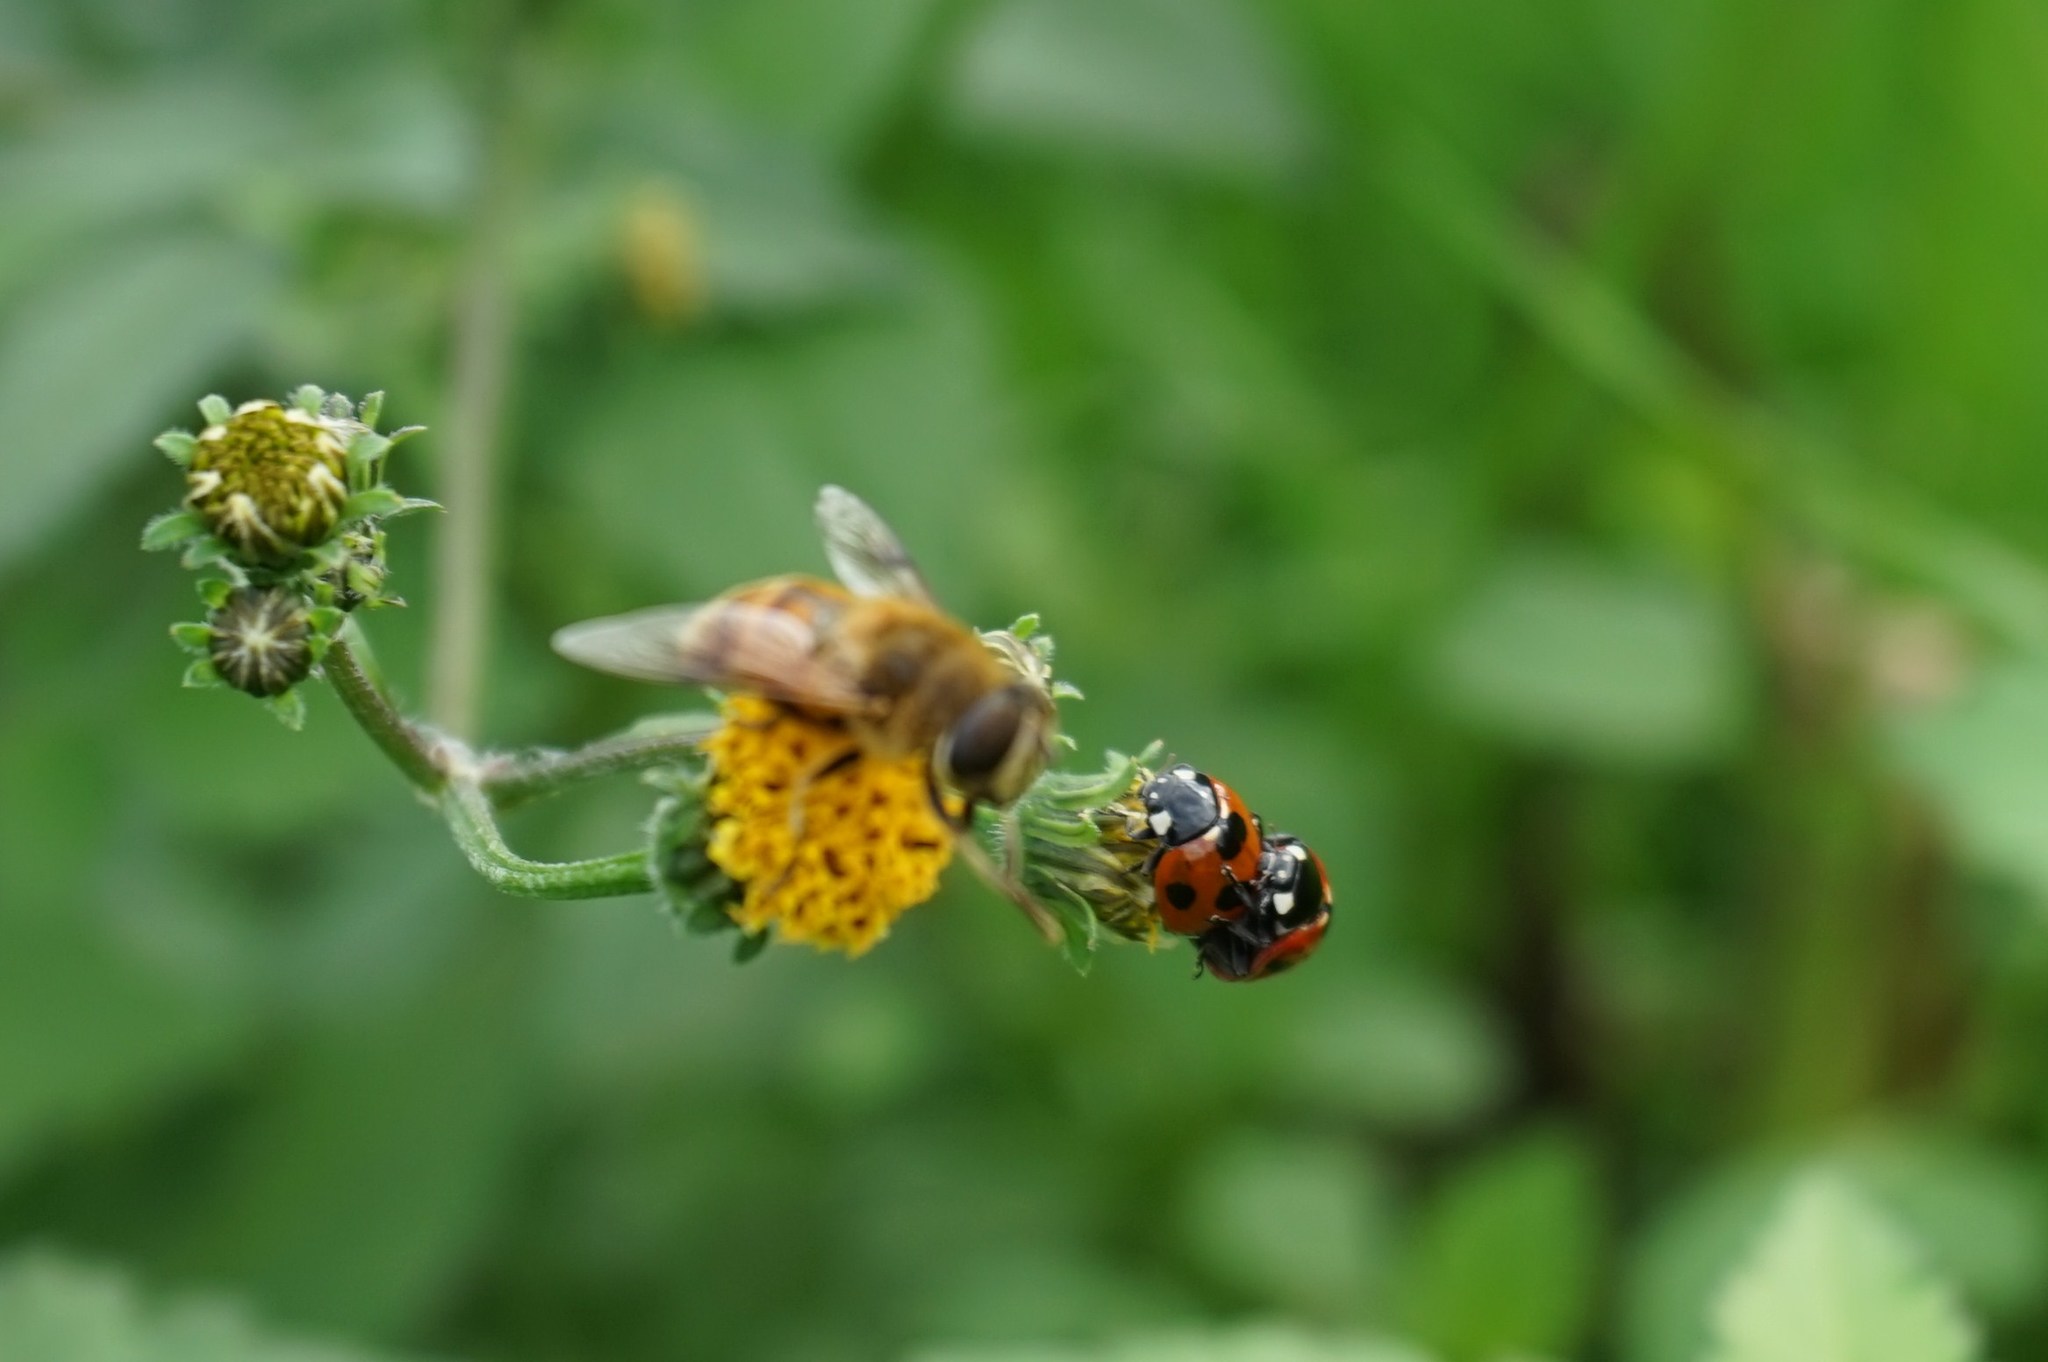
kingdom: Animalia
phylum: Arthropoda
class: Insecta
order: Coleoptera
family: Coccinellidae
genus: Coccinella
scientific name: Coccinella septempunctata
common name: Sevenspotted lady beetle
